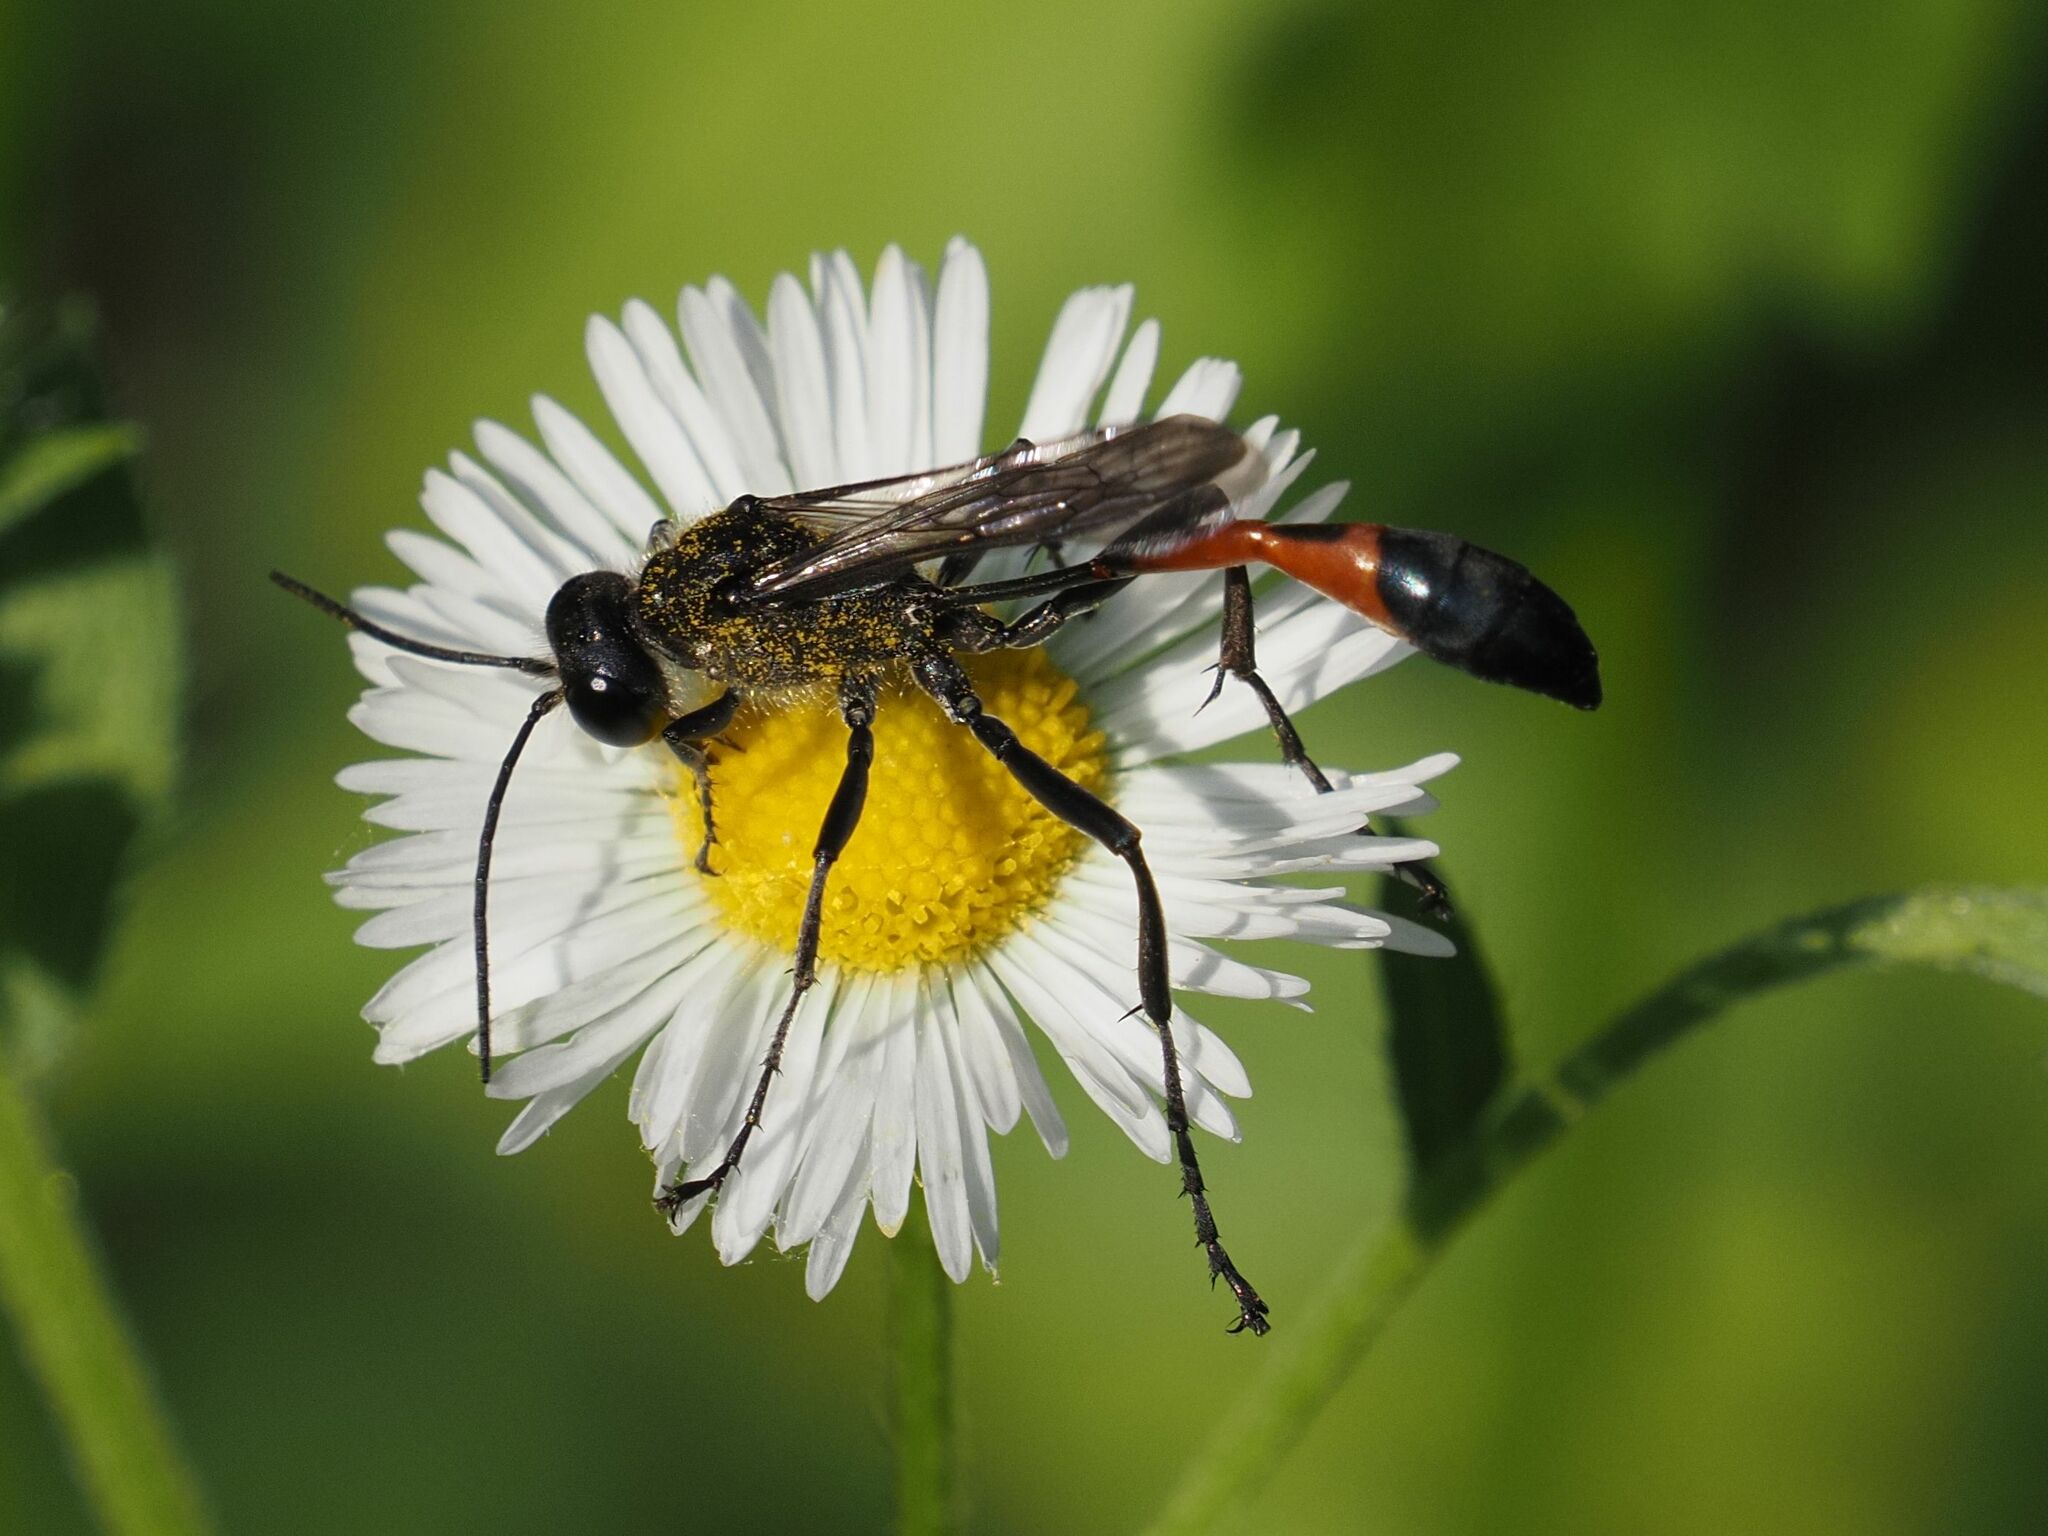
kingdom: Animalia
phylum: Arthropoda
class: Insecta
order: Hymenoptera
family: Sphecidae
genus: Ammophila
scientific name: Ammophila sabulosa
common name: Red banded sand wasp
